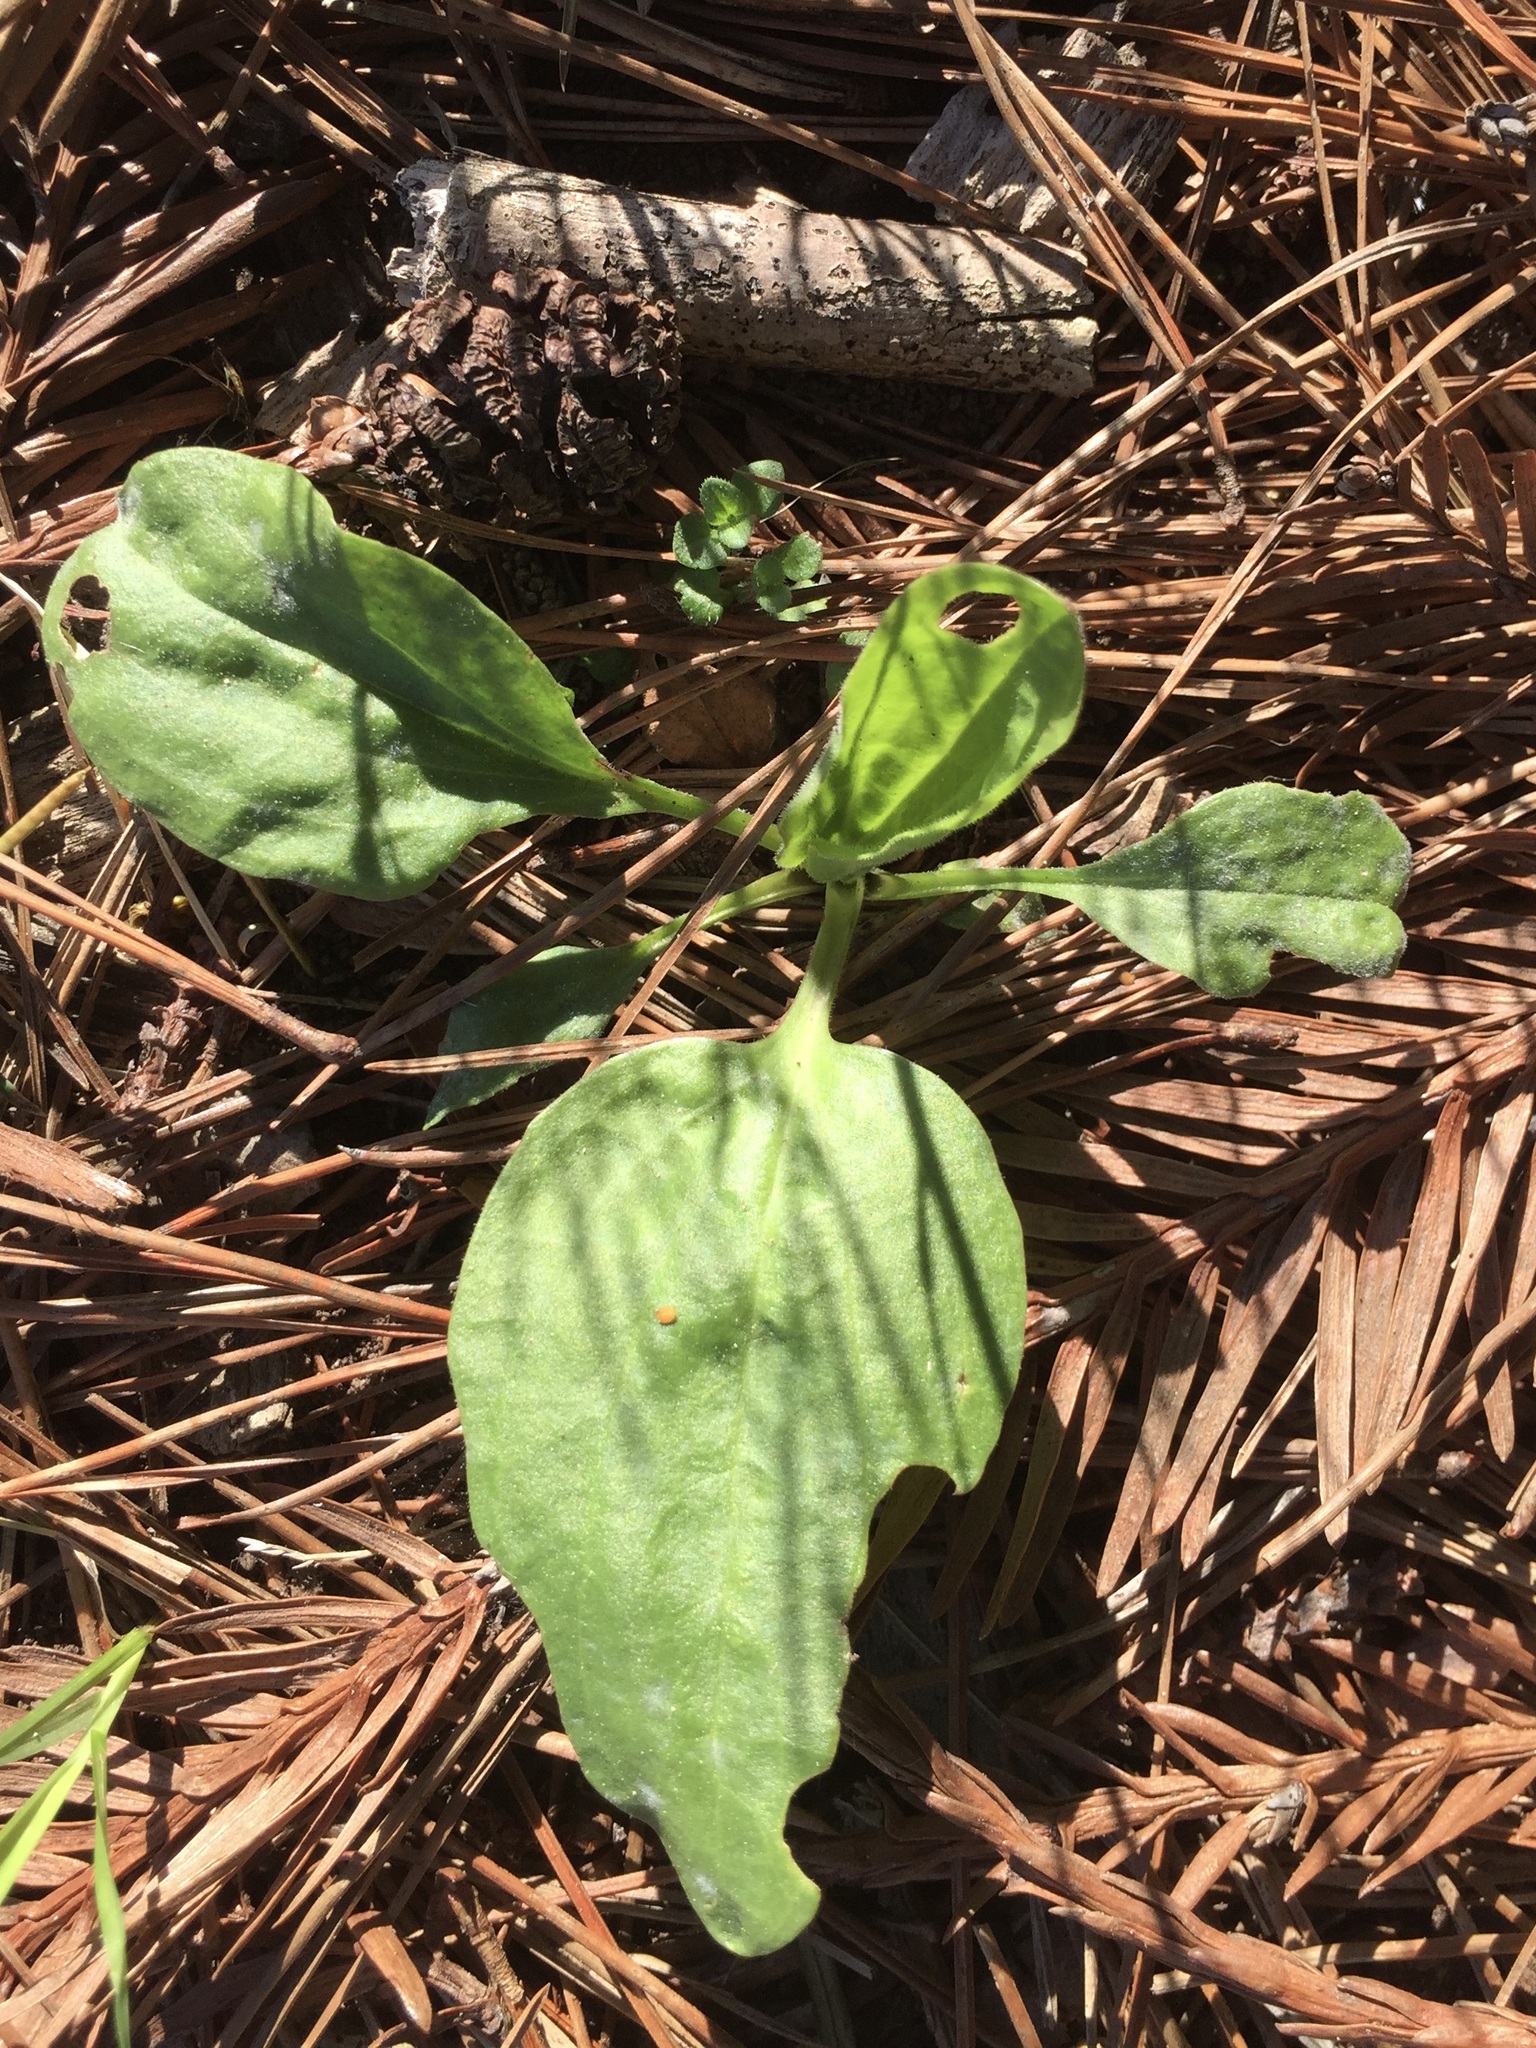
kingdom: Plantae
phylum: Tracheophyta
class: Magnoliopsida
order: Lamiales
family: Plantaginaceae
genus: Plantago
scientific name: Plantago major
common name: Common plantain
